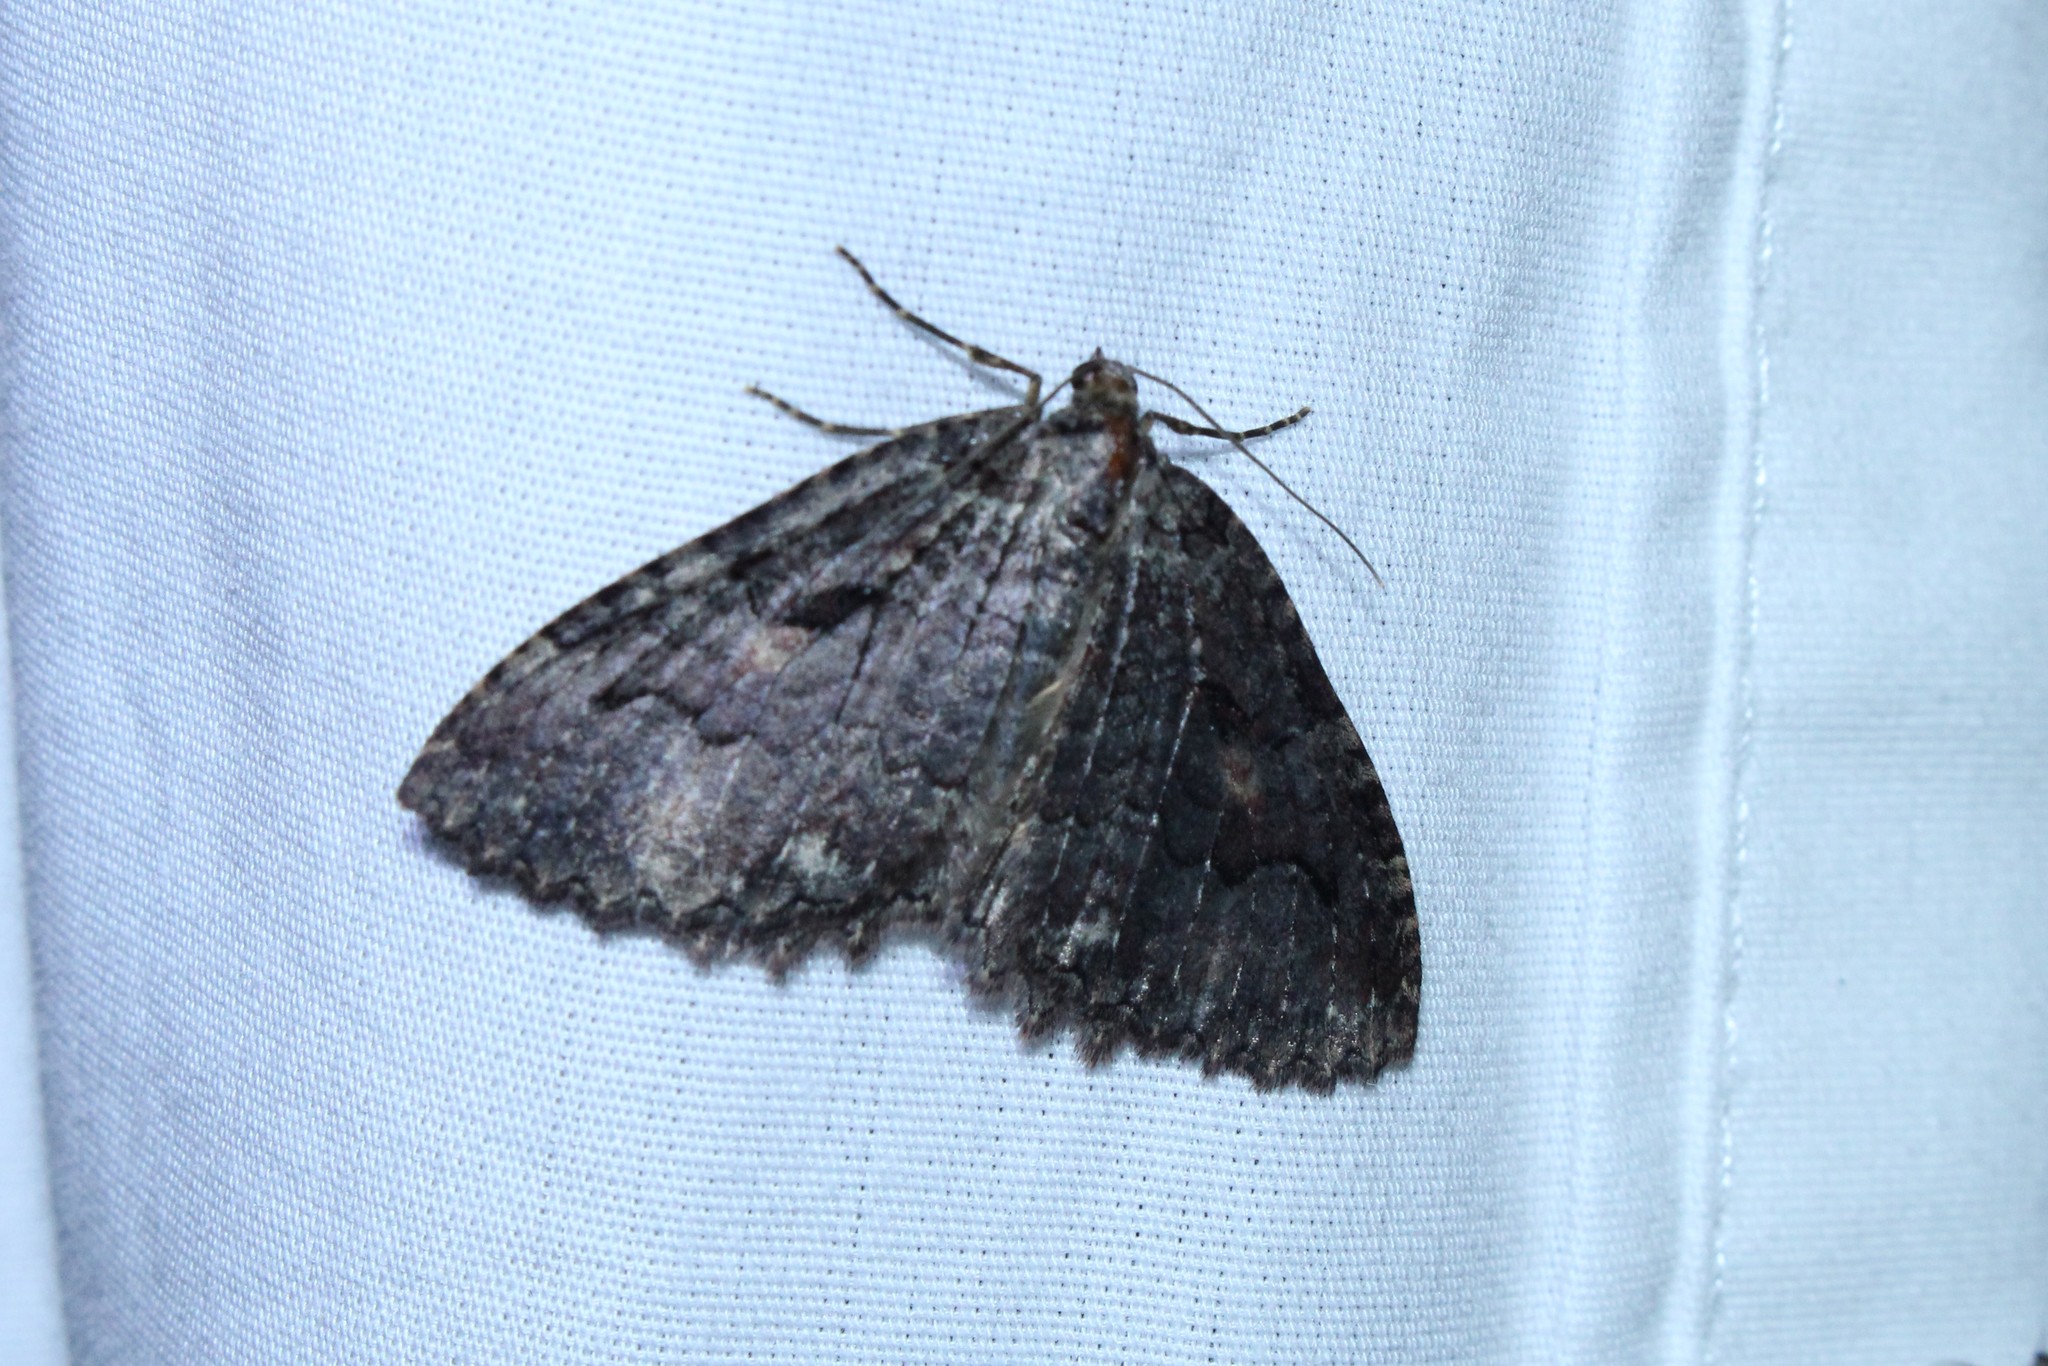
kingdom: Animalia
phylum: Arthropoda
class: Insecta
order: Lepidoptera
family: Geometridae
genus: Triphosa
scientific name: Triphosa haesitata
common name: Tissue moth
